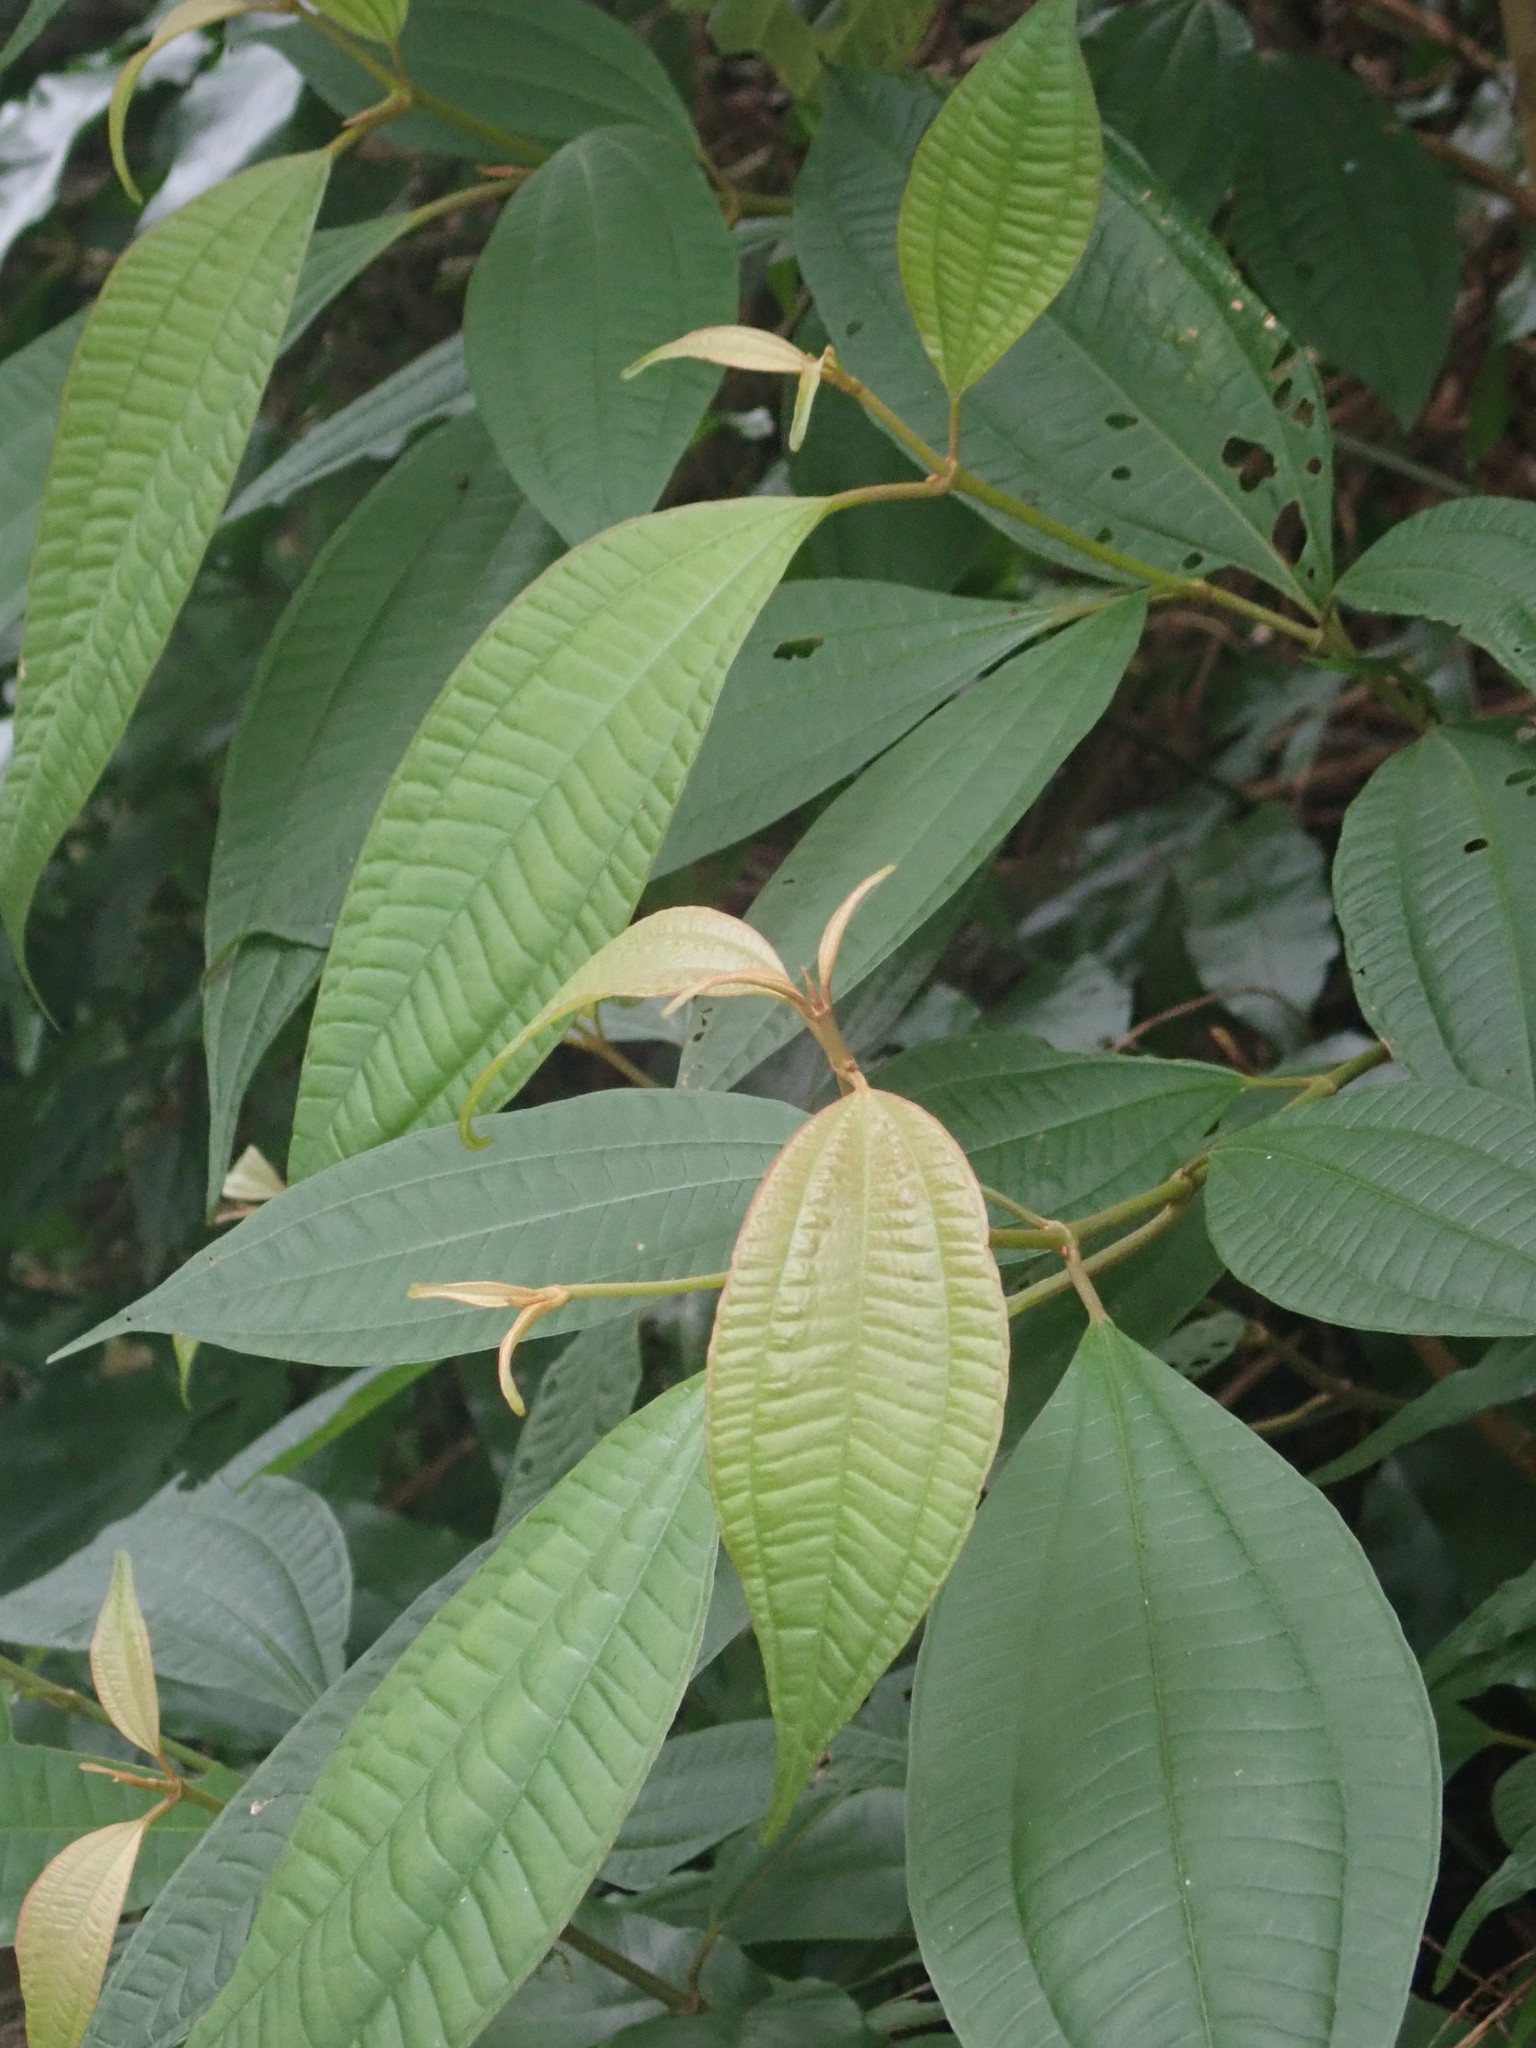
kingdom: Plantae
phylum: Tracheophyta
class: Magnoliopsida
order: Myrtales
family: Melastomataceae
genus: Blastus
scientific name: Blastus cochinchinensis
